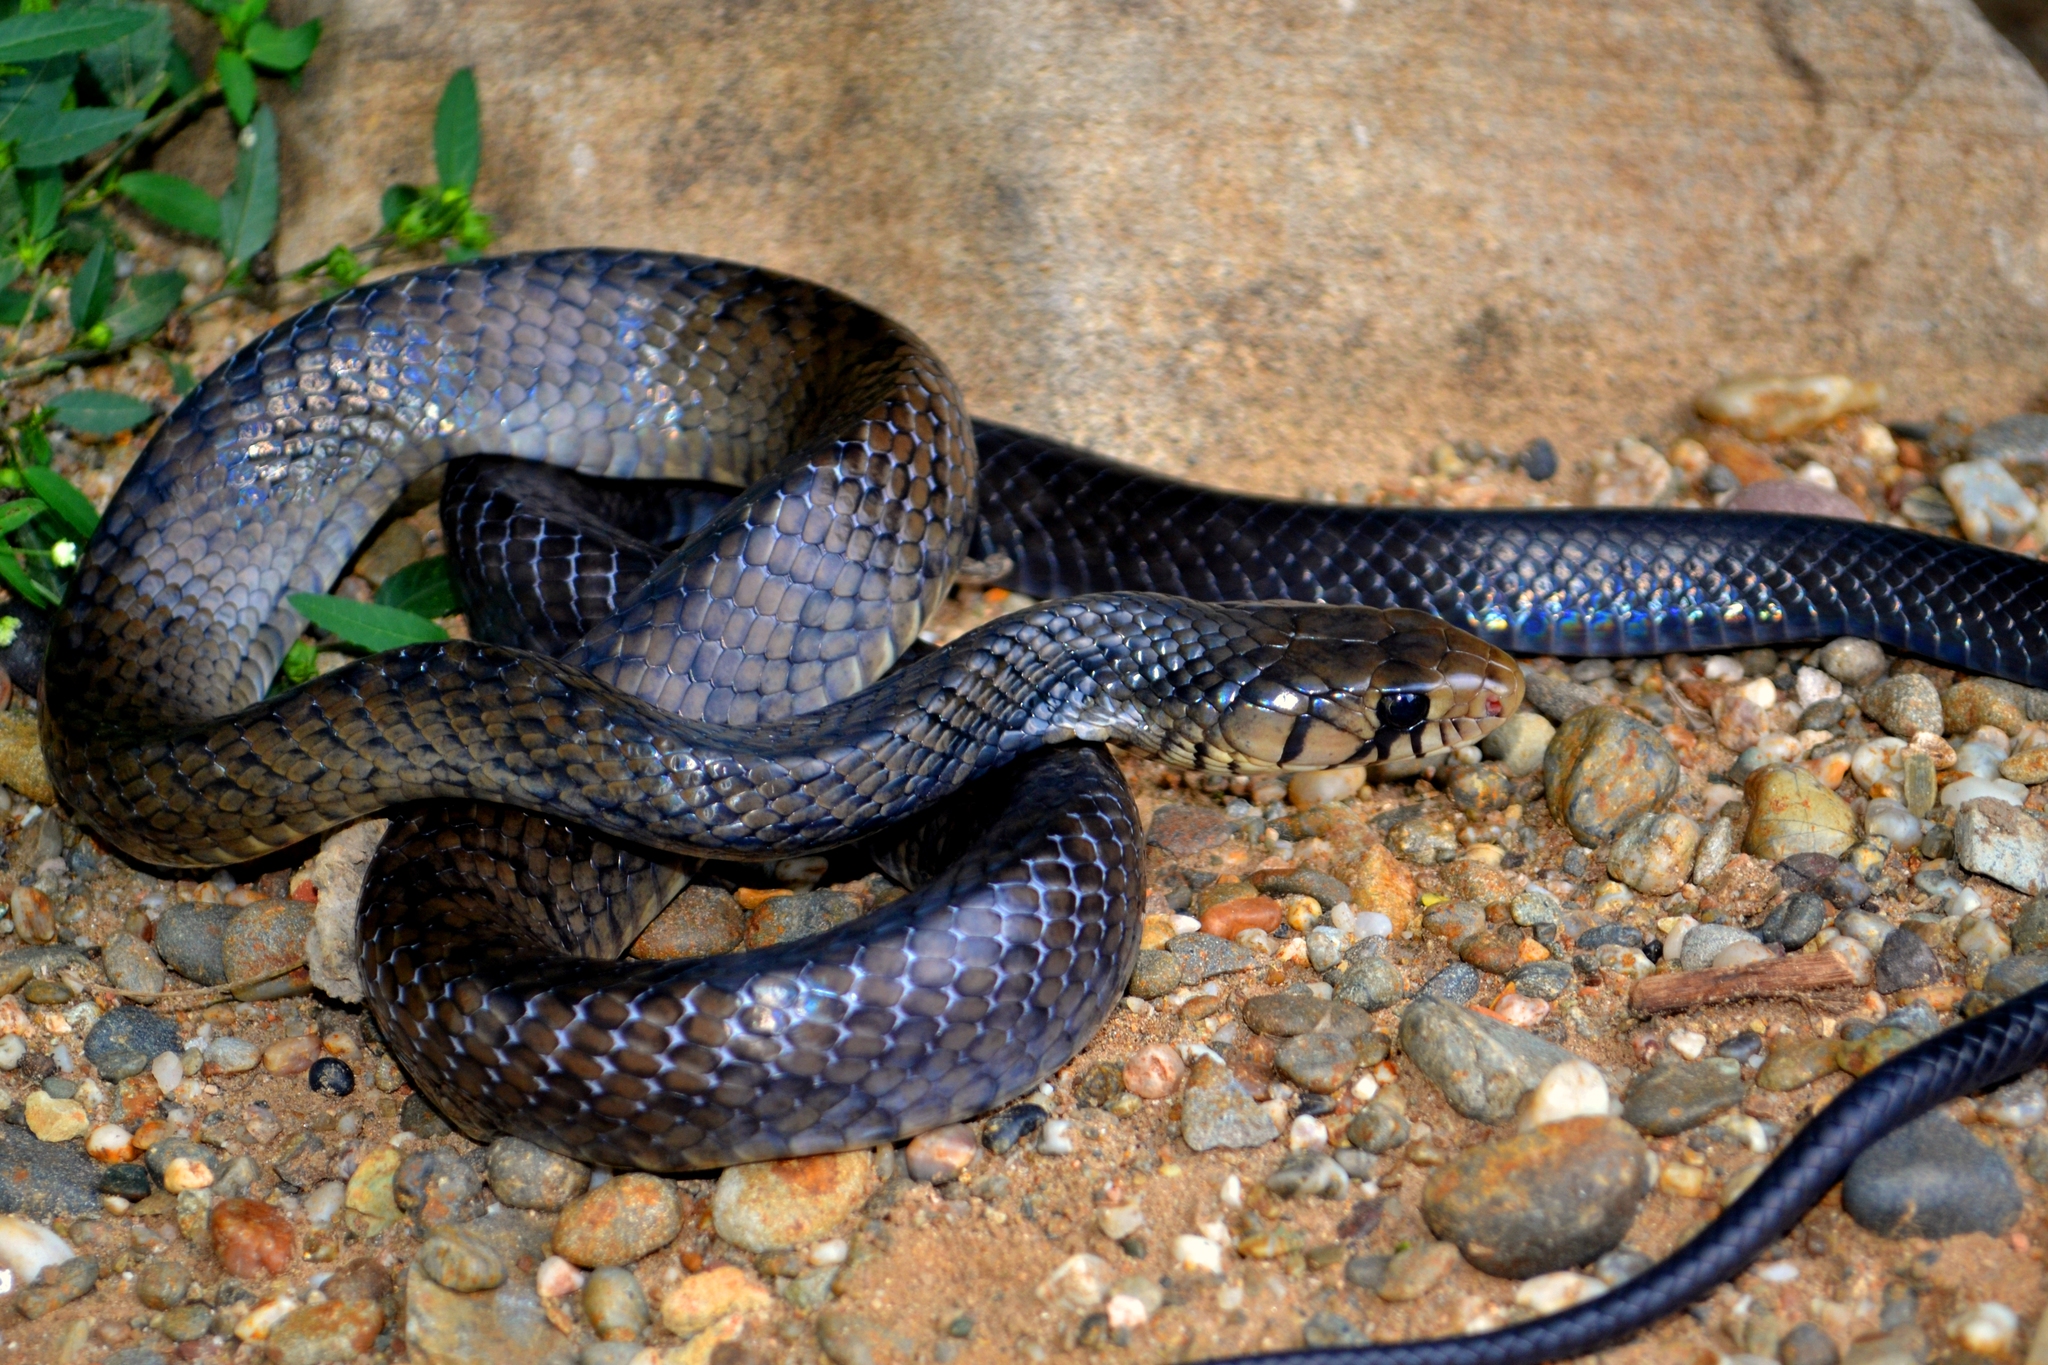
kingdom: Animalia
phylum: Chordata
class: Squamata
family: Colubridae
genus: Drymarchon
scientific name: Drymarchon melanurus
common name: Central american indigo snake
